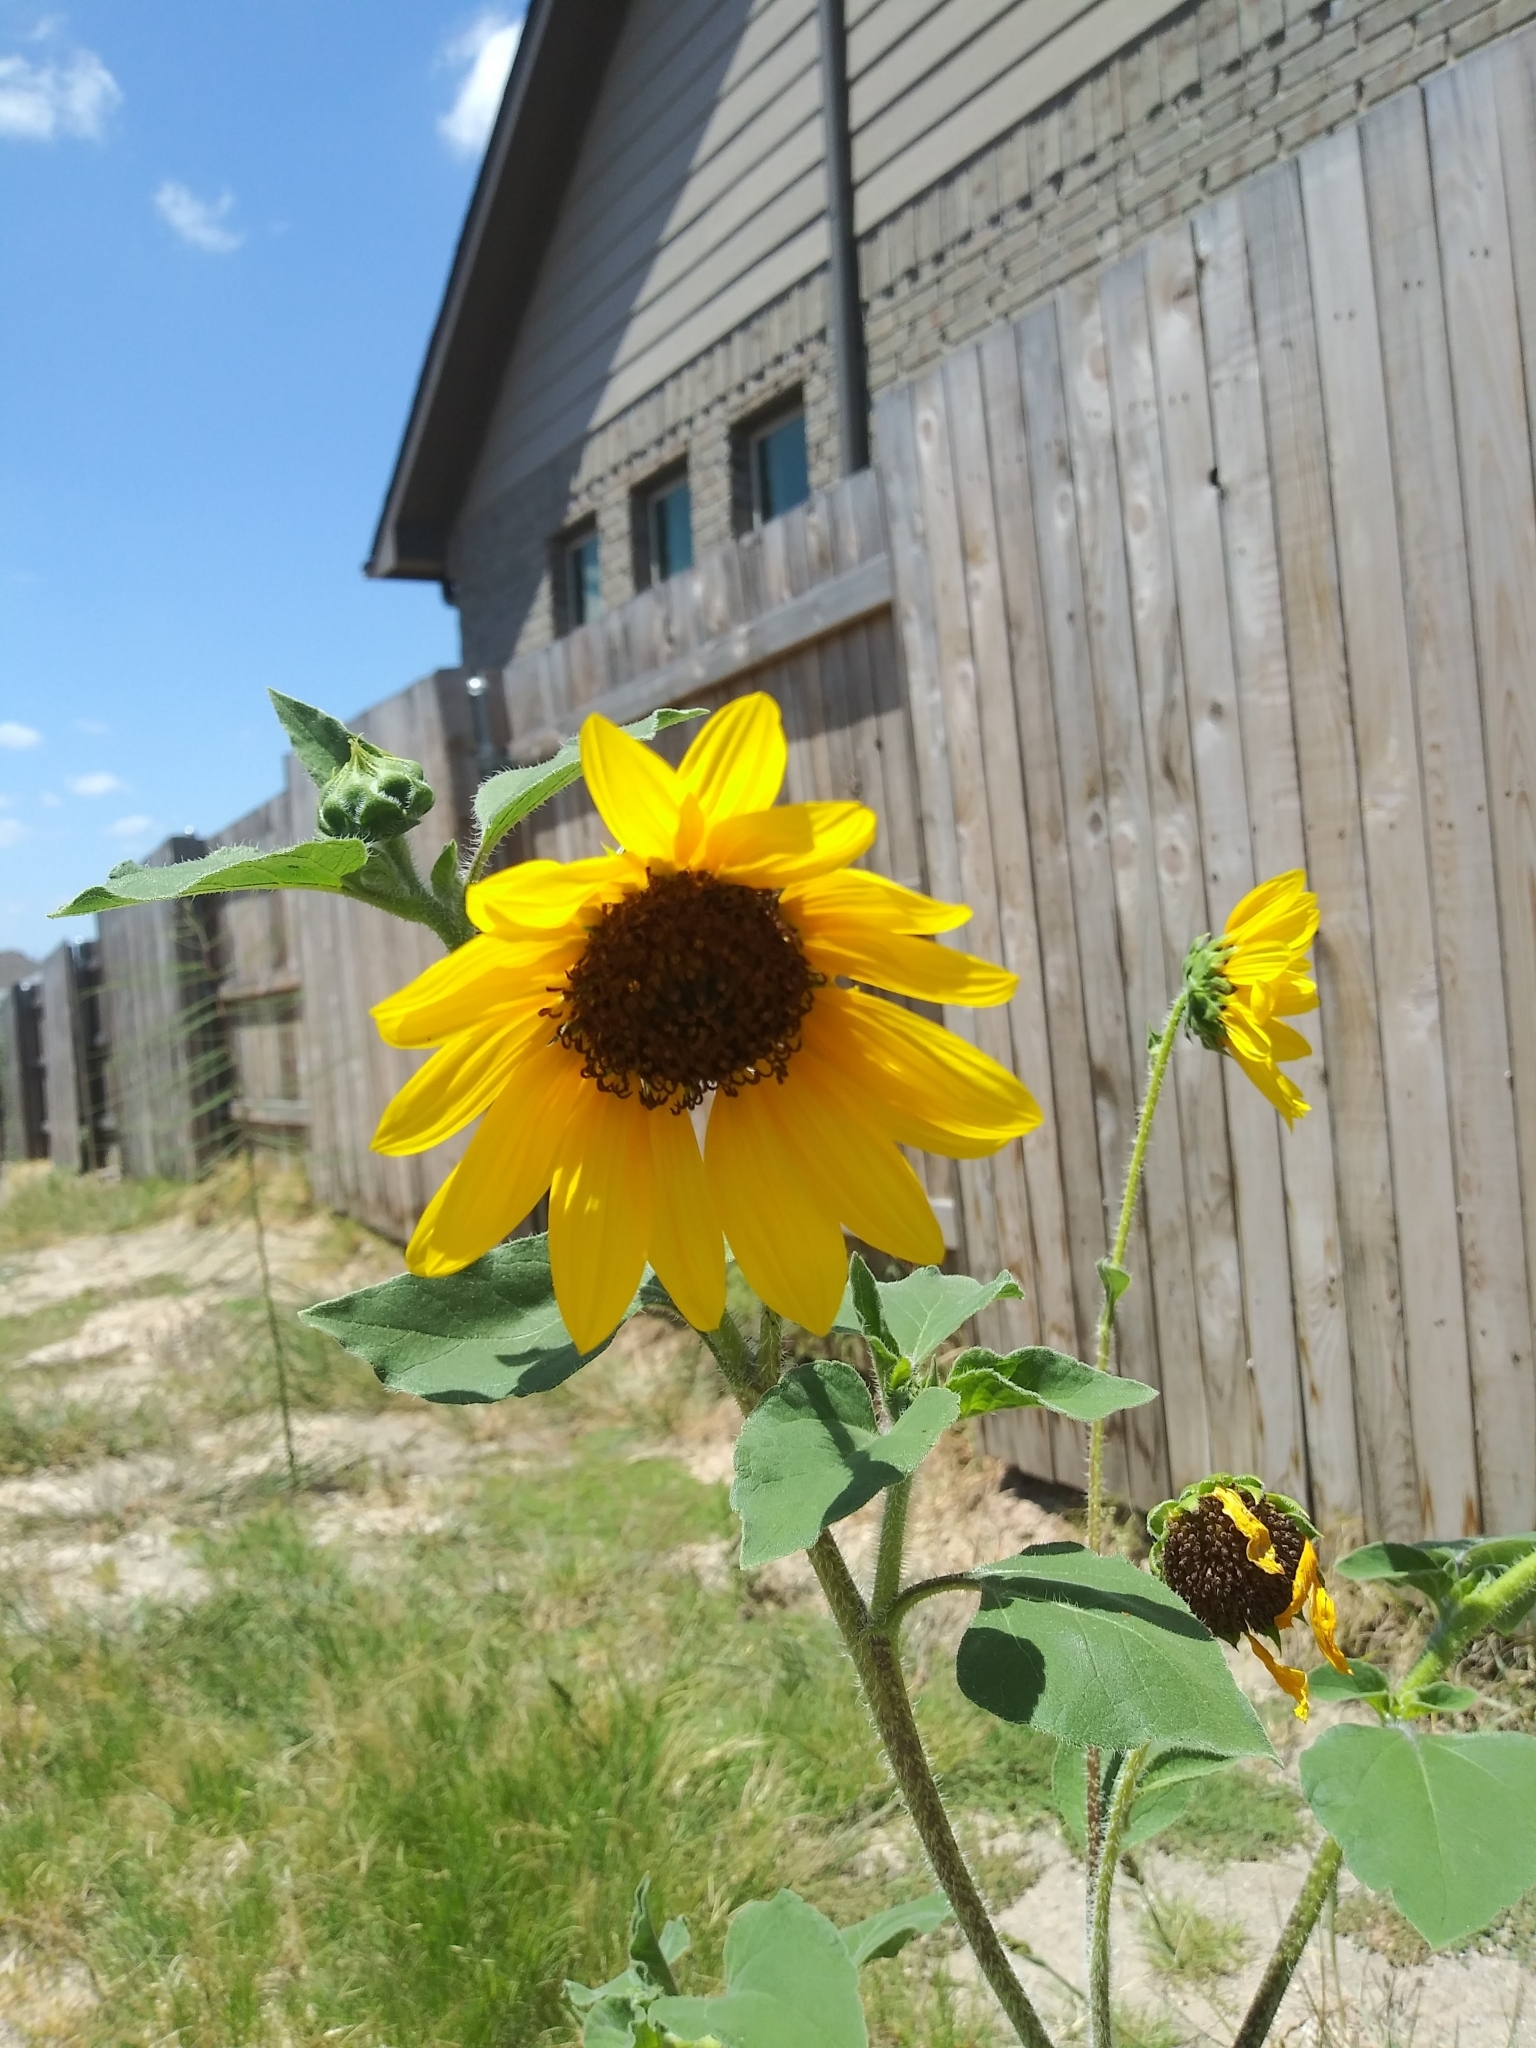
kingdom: Plantae
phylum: Tracheophyta
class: Magnoliopsida
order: Asterales
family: Asteraceae
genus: Helianthus
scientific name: Helianthus annuus
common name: Sunflower
